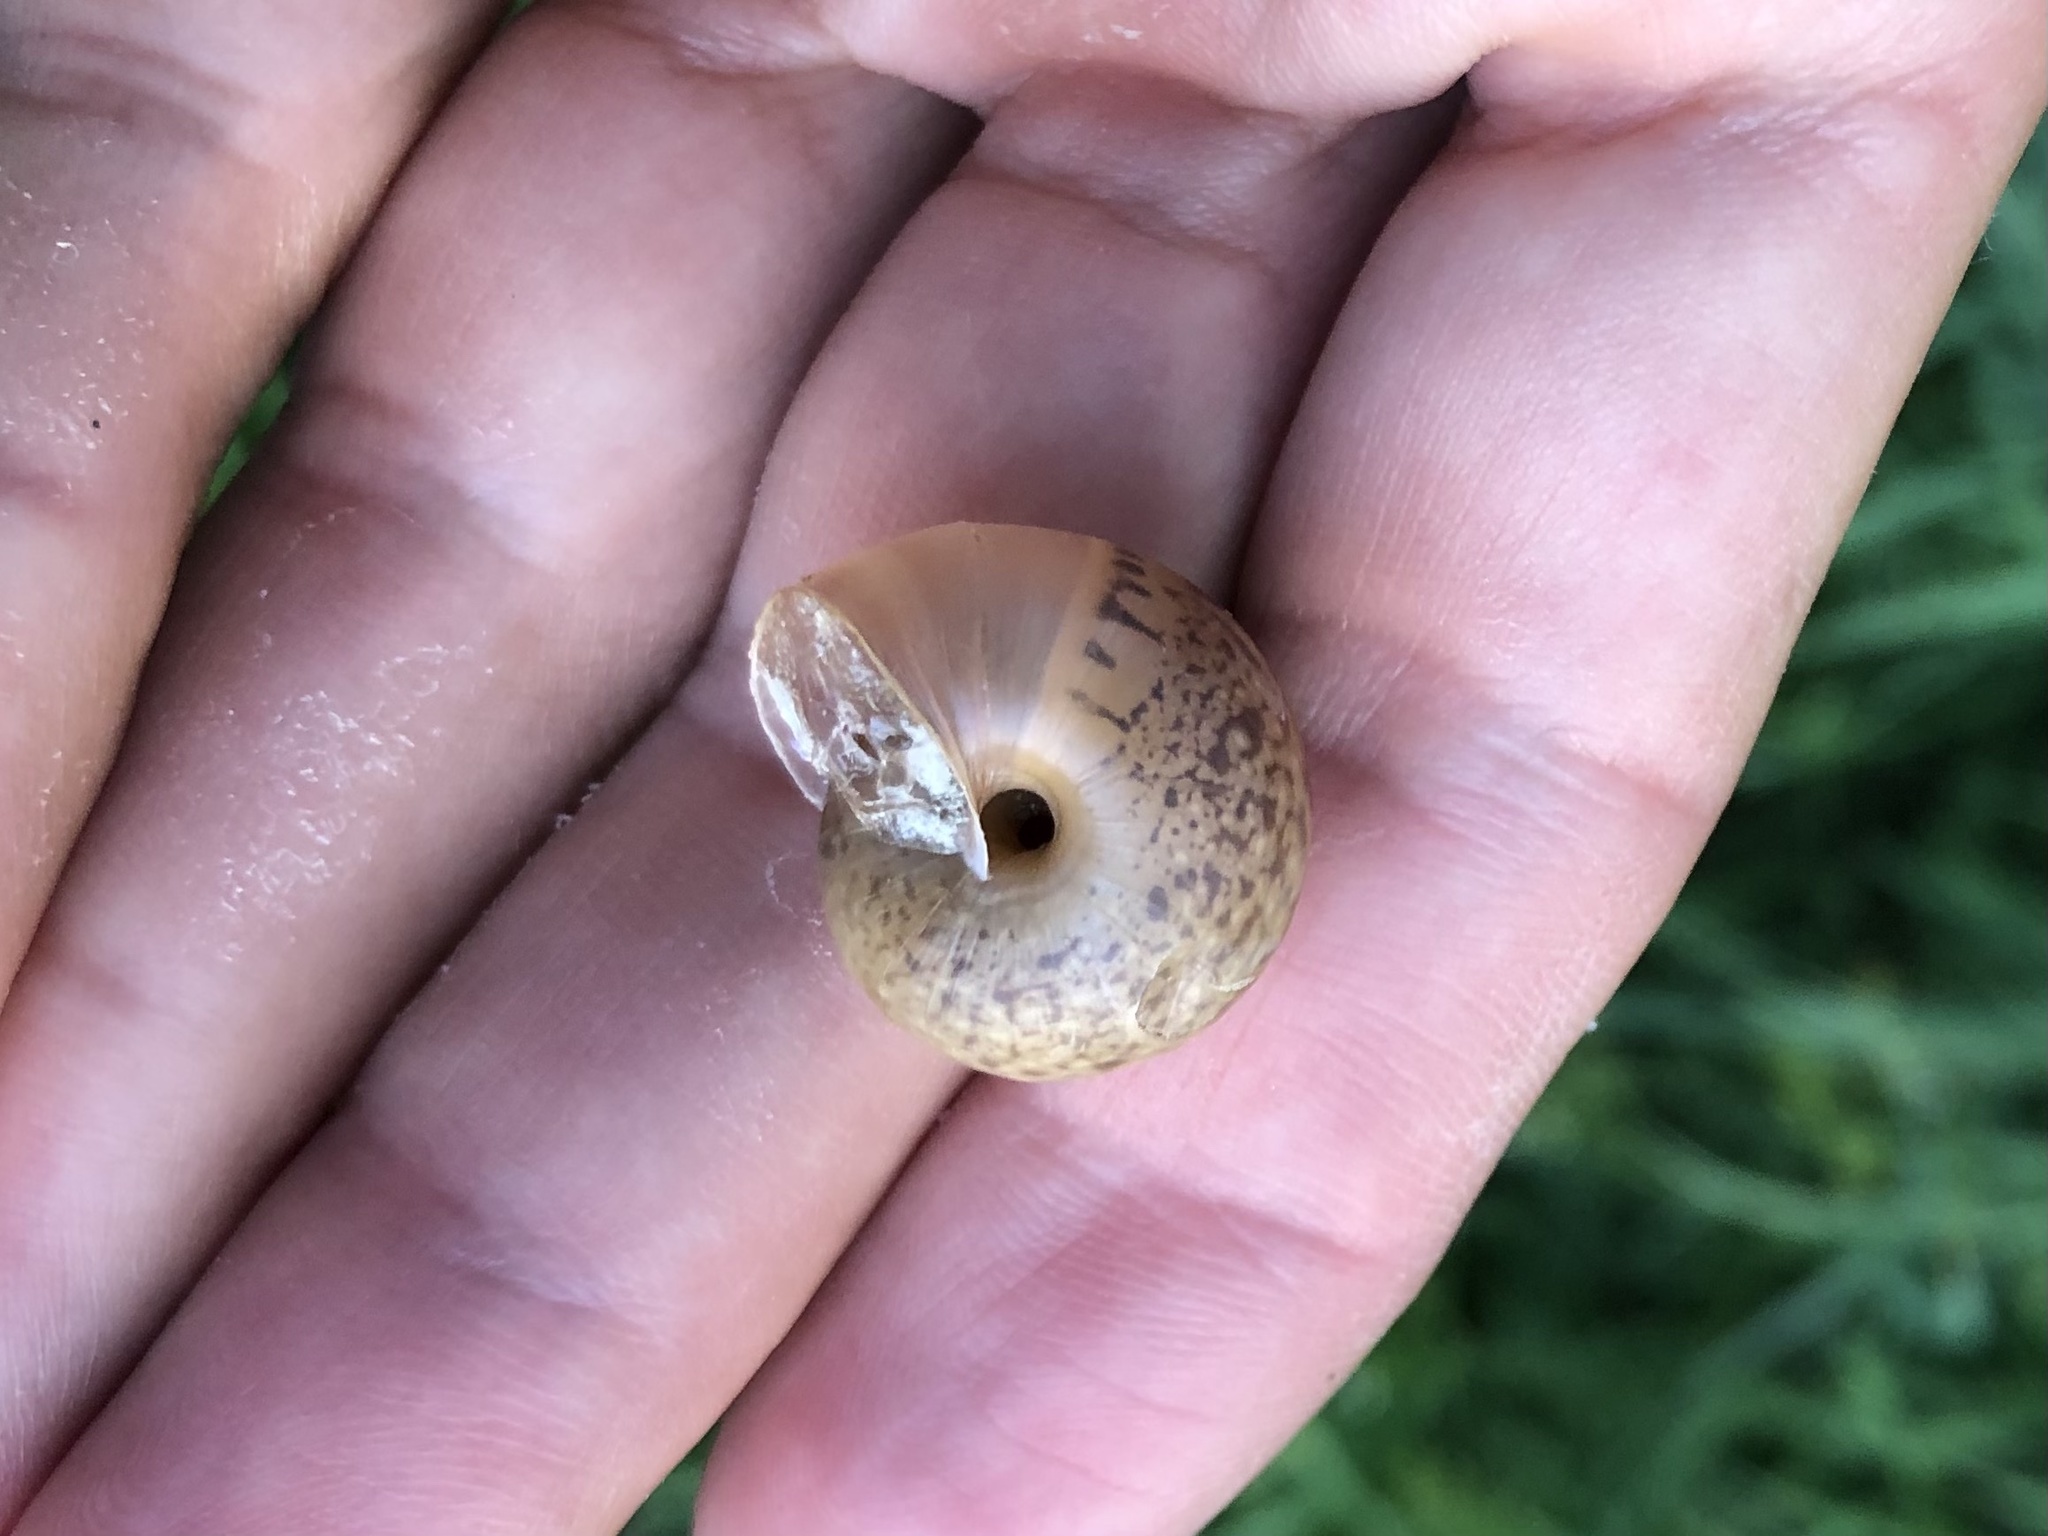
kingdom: Animalia
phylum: Mollusca
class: Gastropoda
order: Stylommatophora
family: Camaenidae
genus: Fruticicola
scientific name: Fruticicola fruticum
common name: Bush snail
